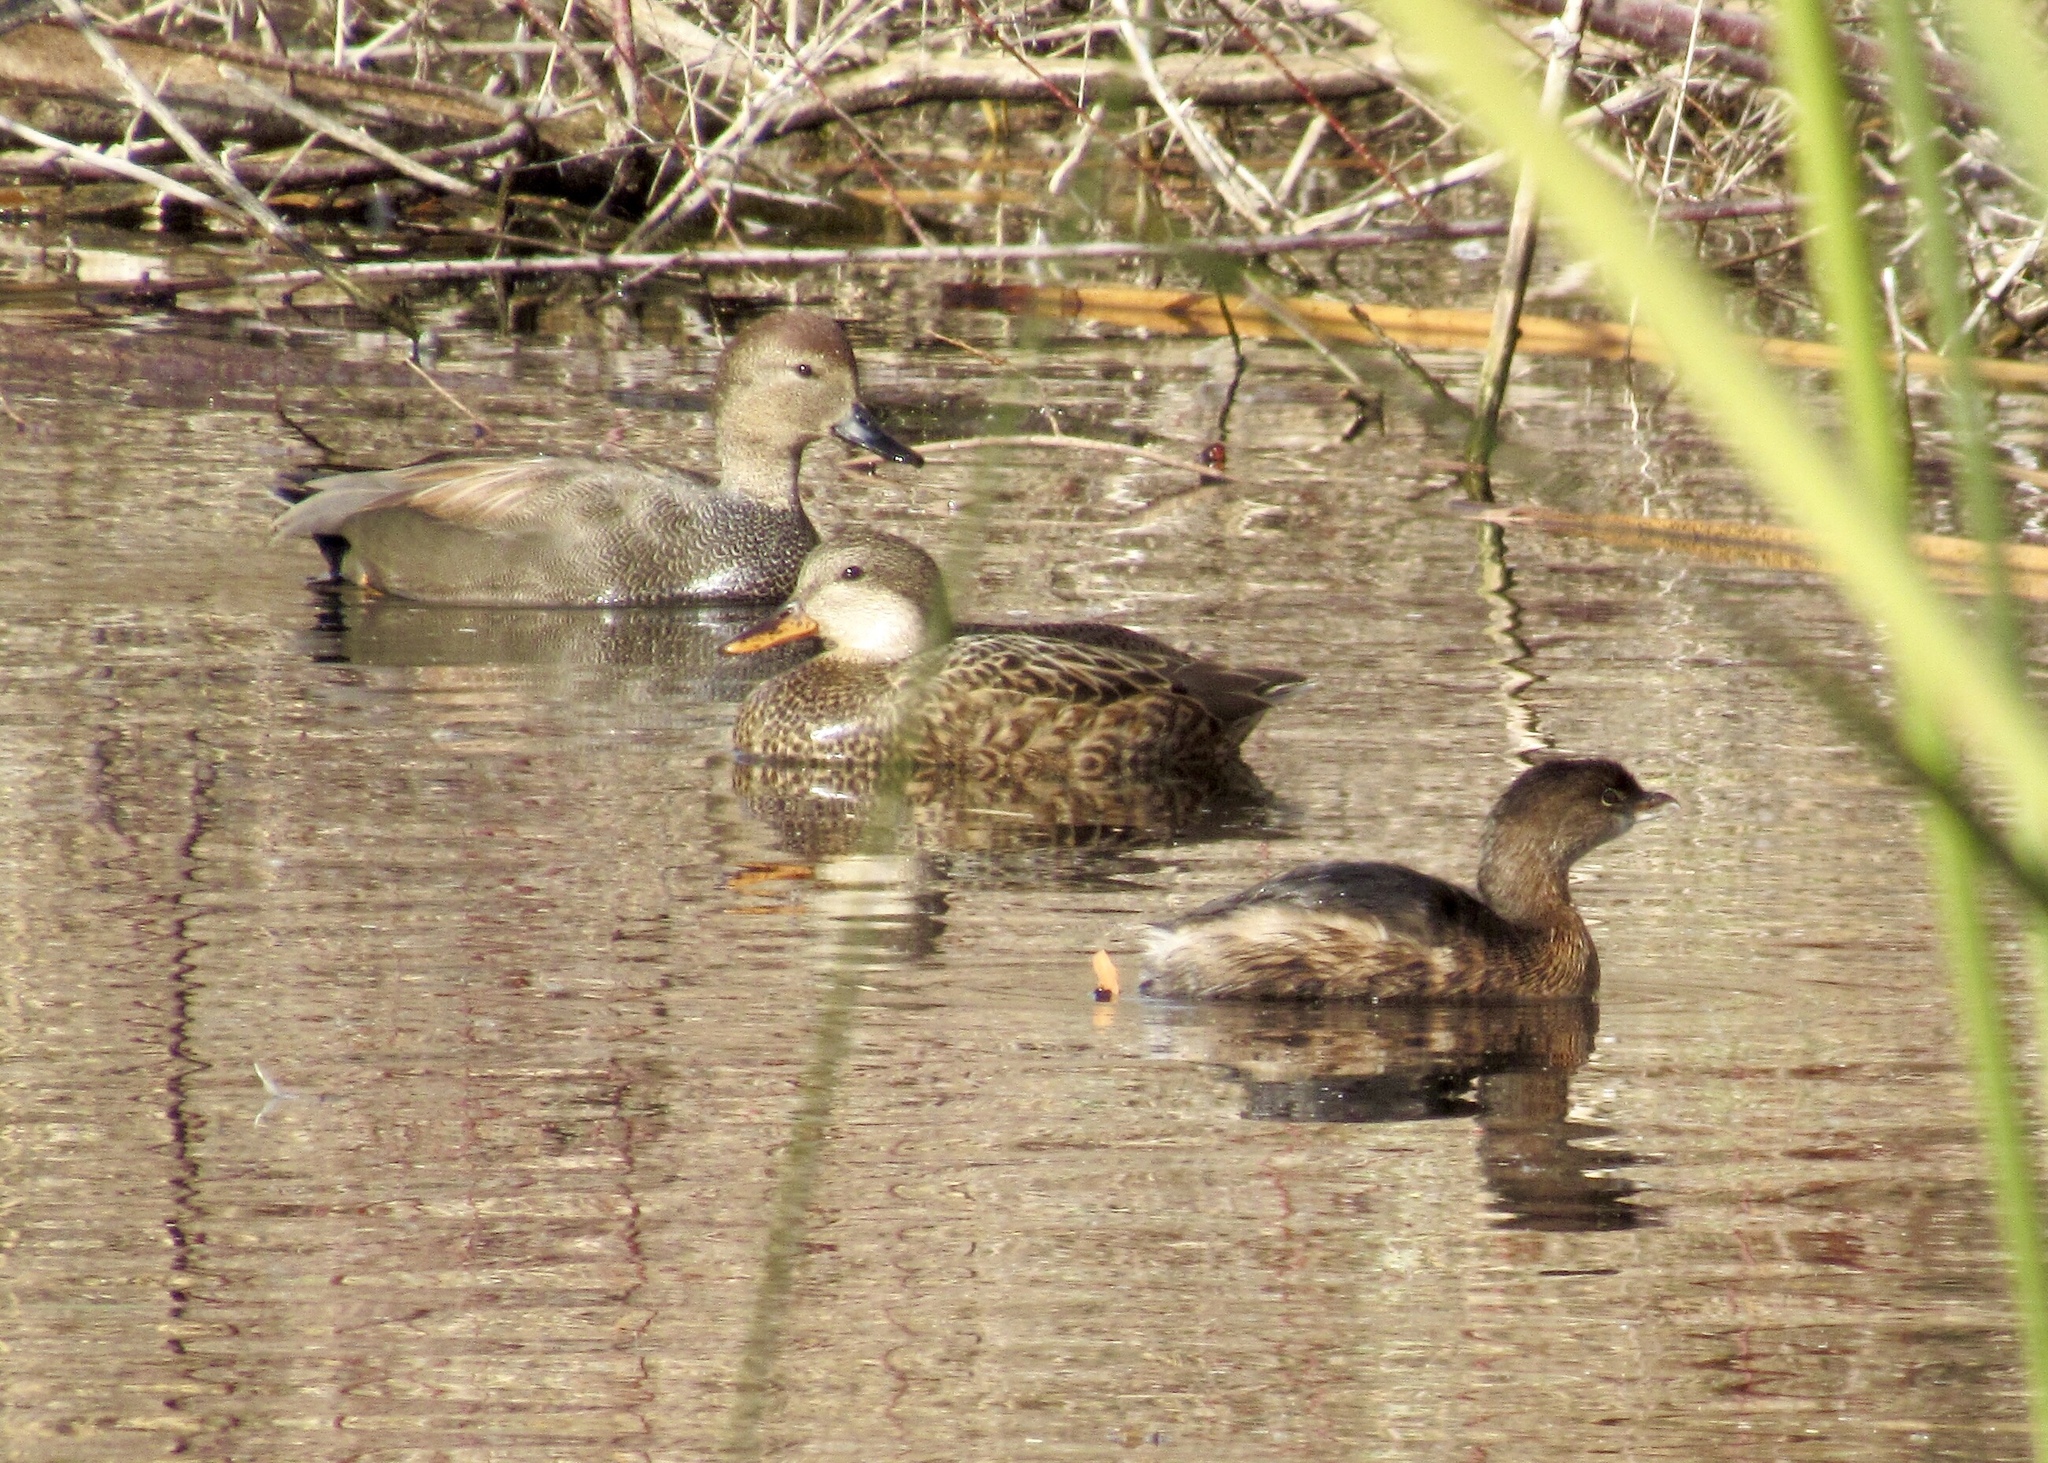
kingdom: Animalia
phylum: Chordata
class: Aves
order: Anseriformes
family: Anatidae
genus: Mareca
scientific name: Mareca strepera
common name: Gadwall
